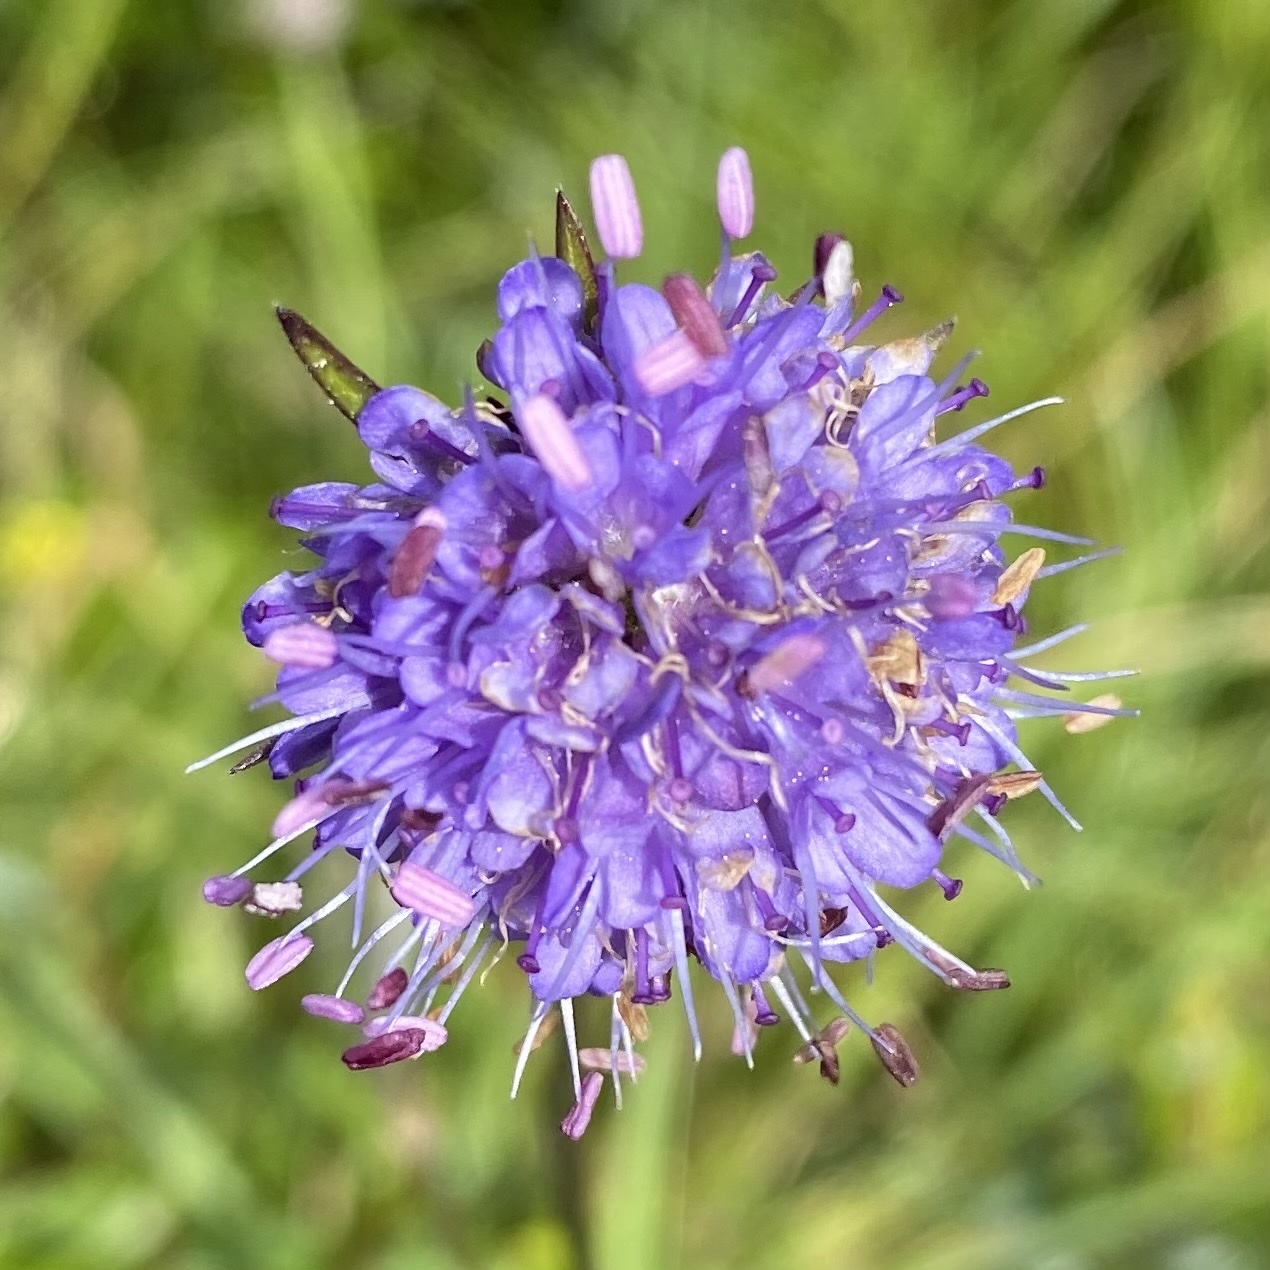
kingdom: Plantae
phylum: Tracheophyta
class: Magnoliopsida
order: Dipsacales
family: Caprifoliaceae
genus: Succisa
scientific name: Succisa pratensis
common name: Devil's-bit
